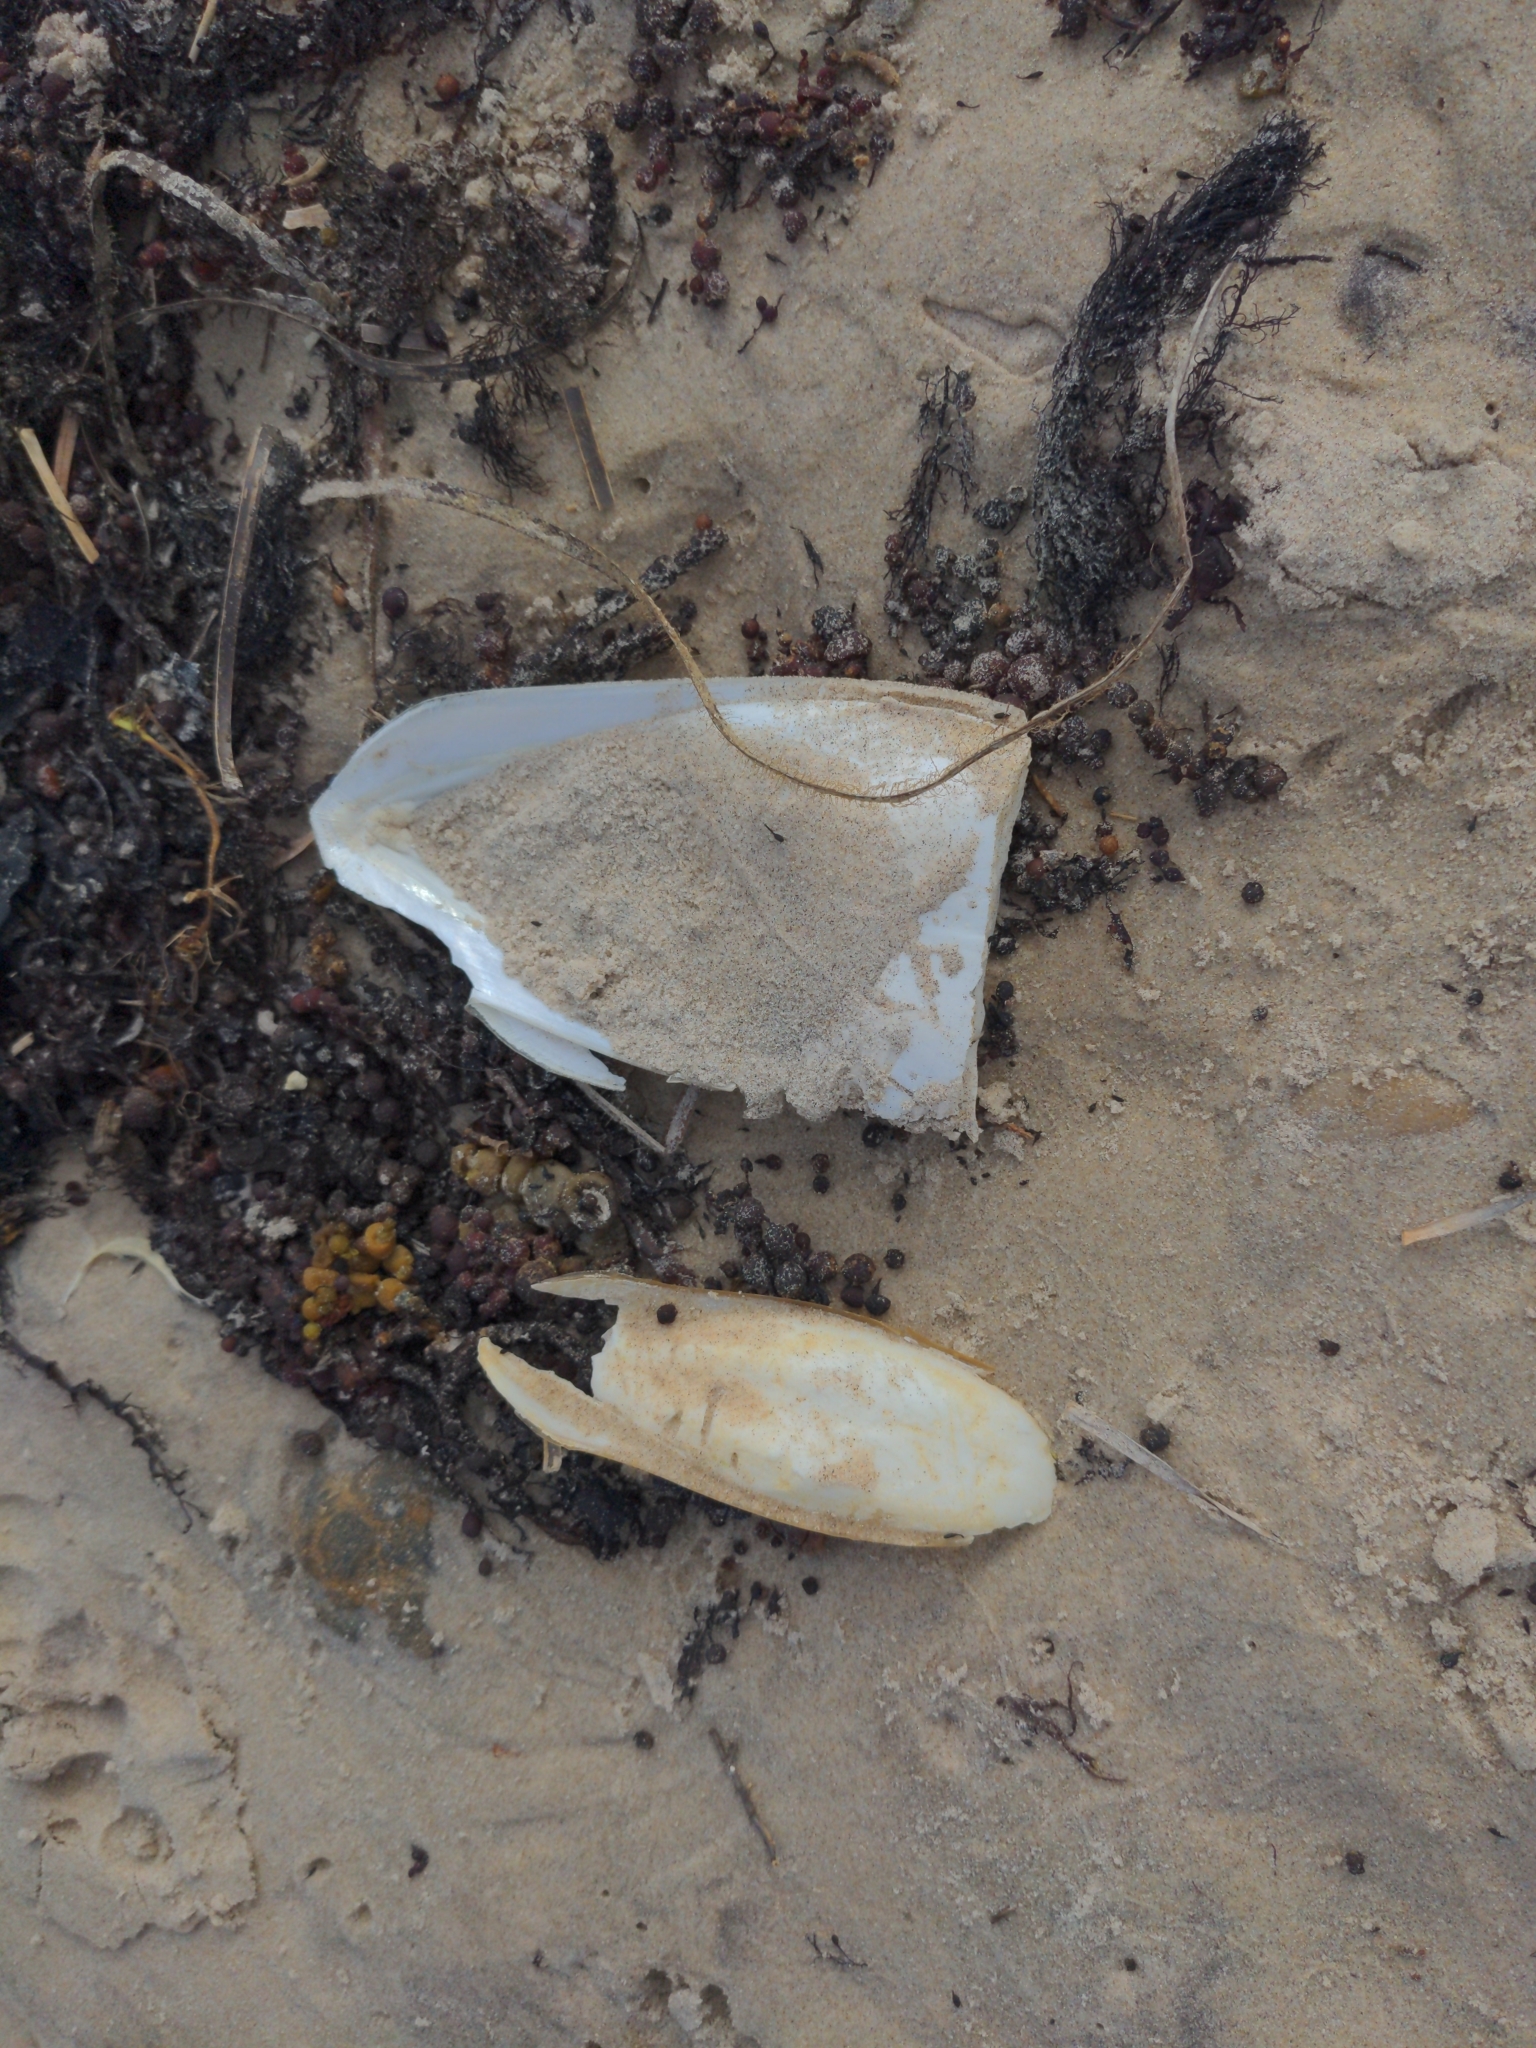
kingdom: Animalia
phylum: Mollusca
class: Cephalopoda
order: Sepiida
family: Sepiidae
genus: Ascarosepion
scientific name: Ascarosepion apama
